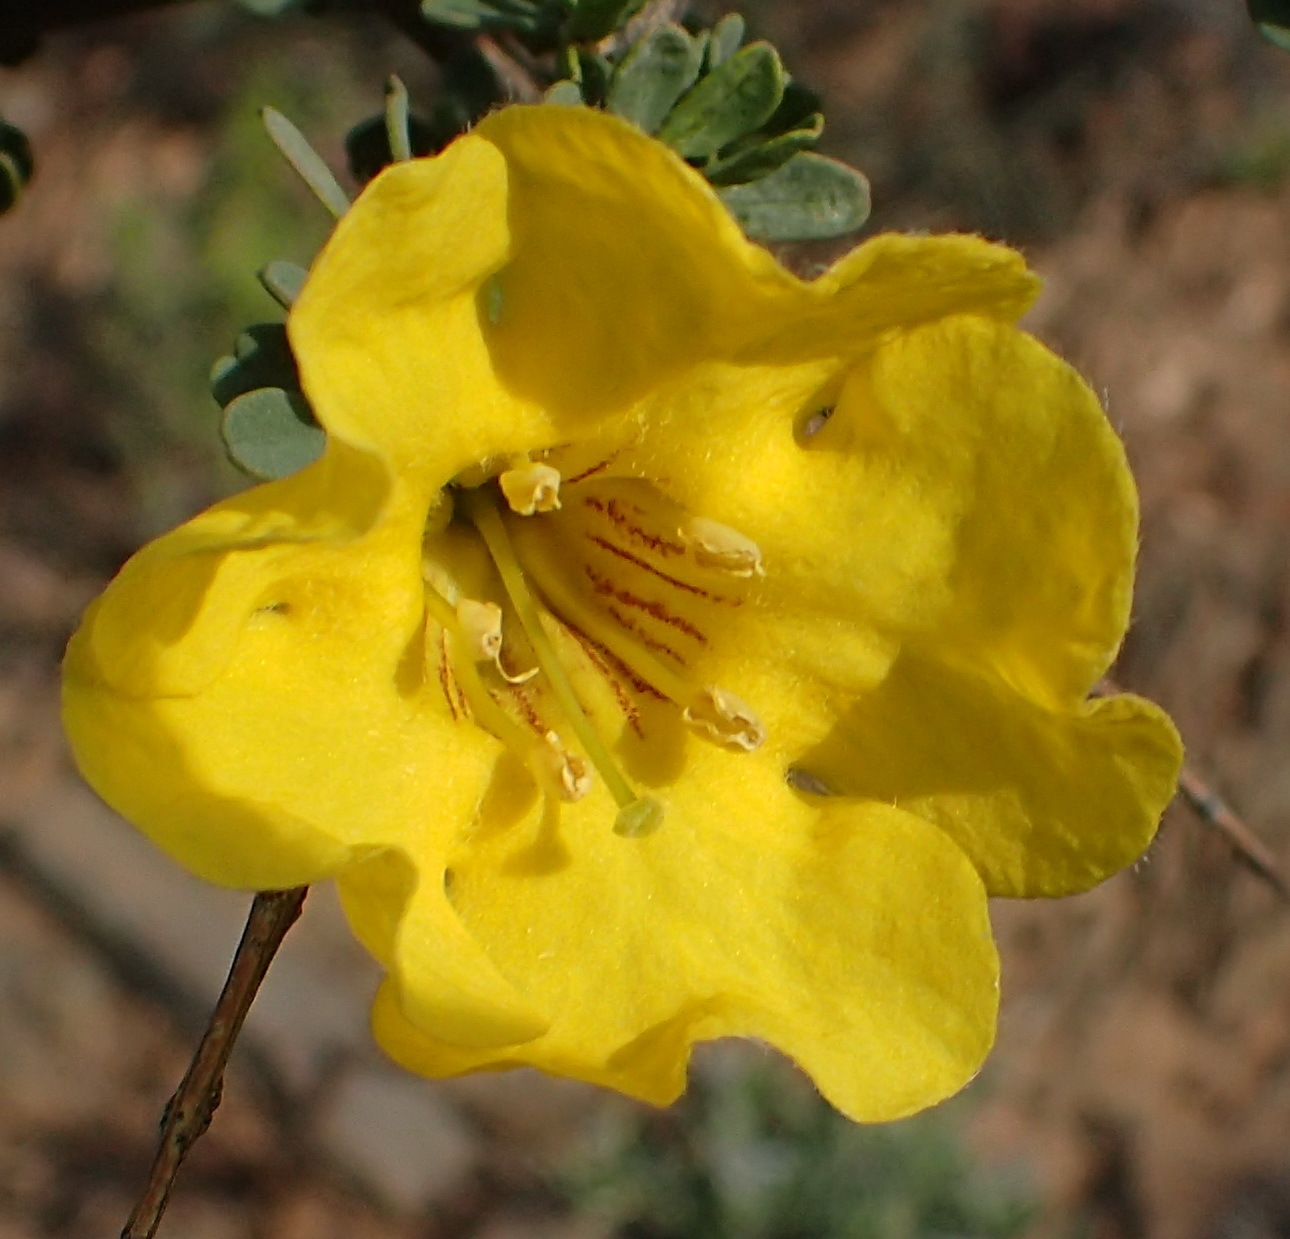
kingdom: Plantae
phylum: Tracheophyta
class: Magnoliopsida
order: Lamiales
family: Bignoniaceae
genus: Rhigozum
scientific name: Rhigozum obovatum
